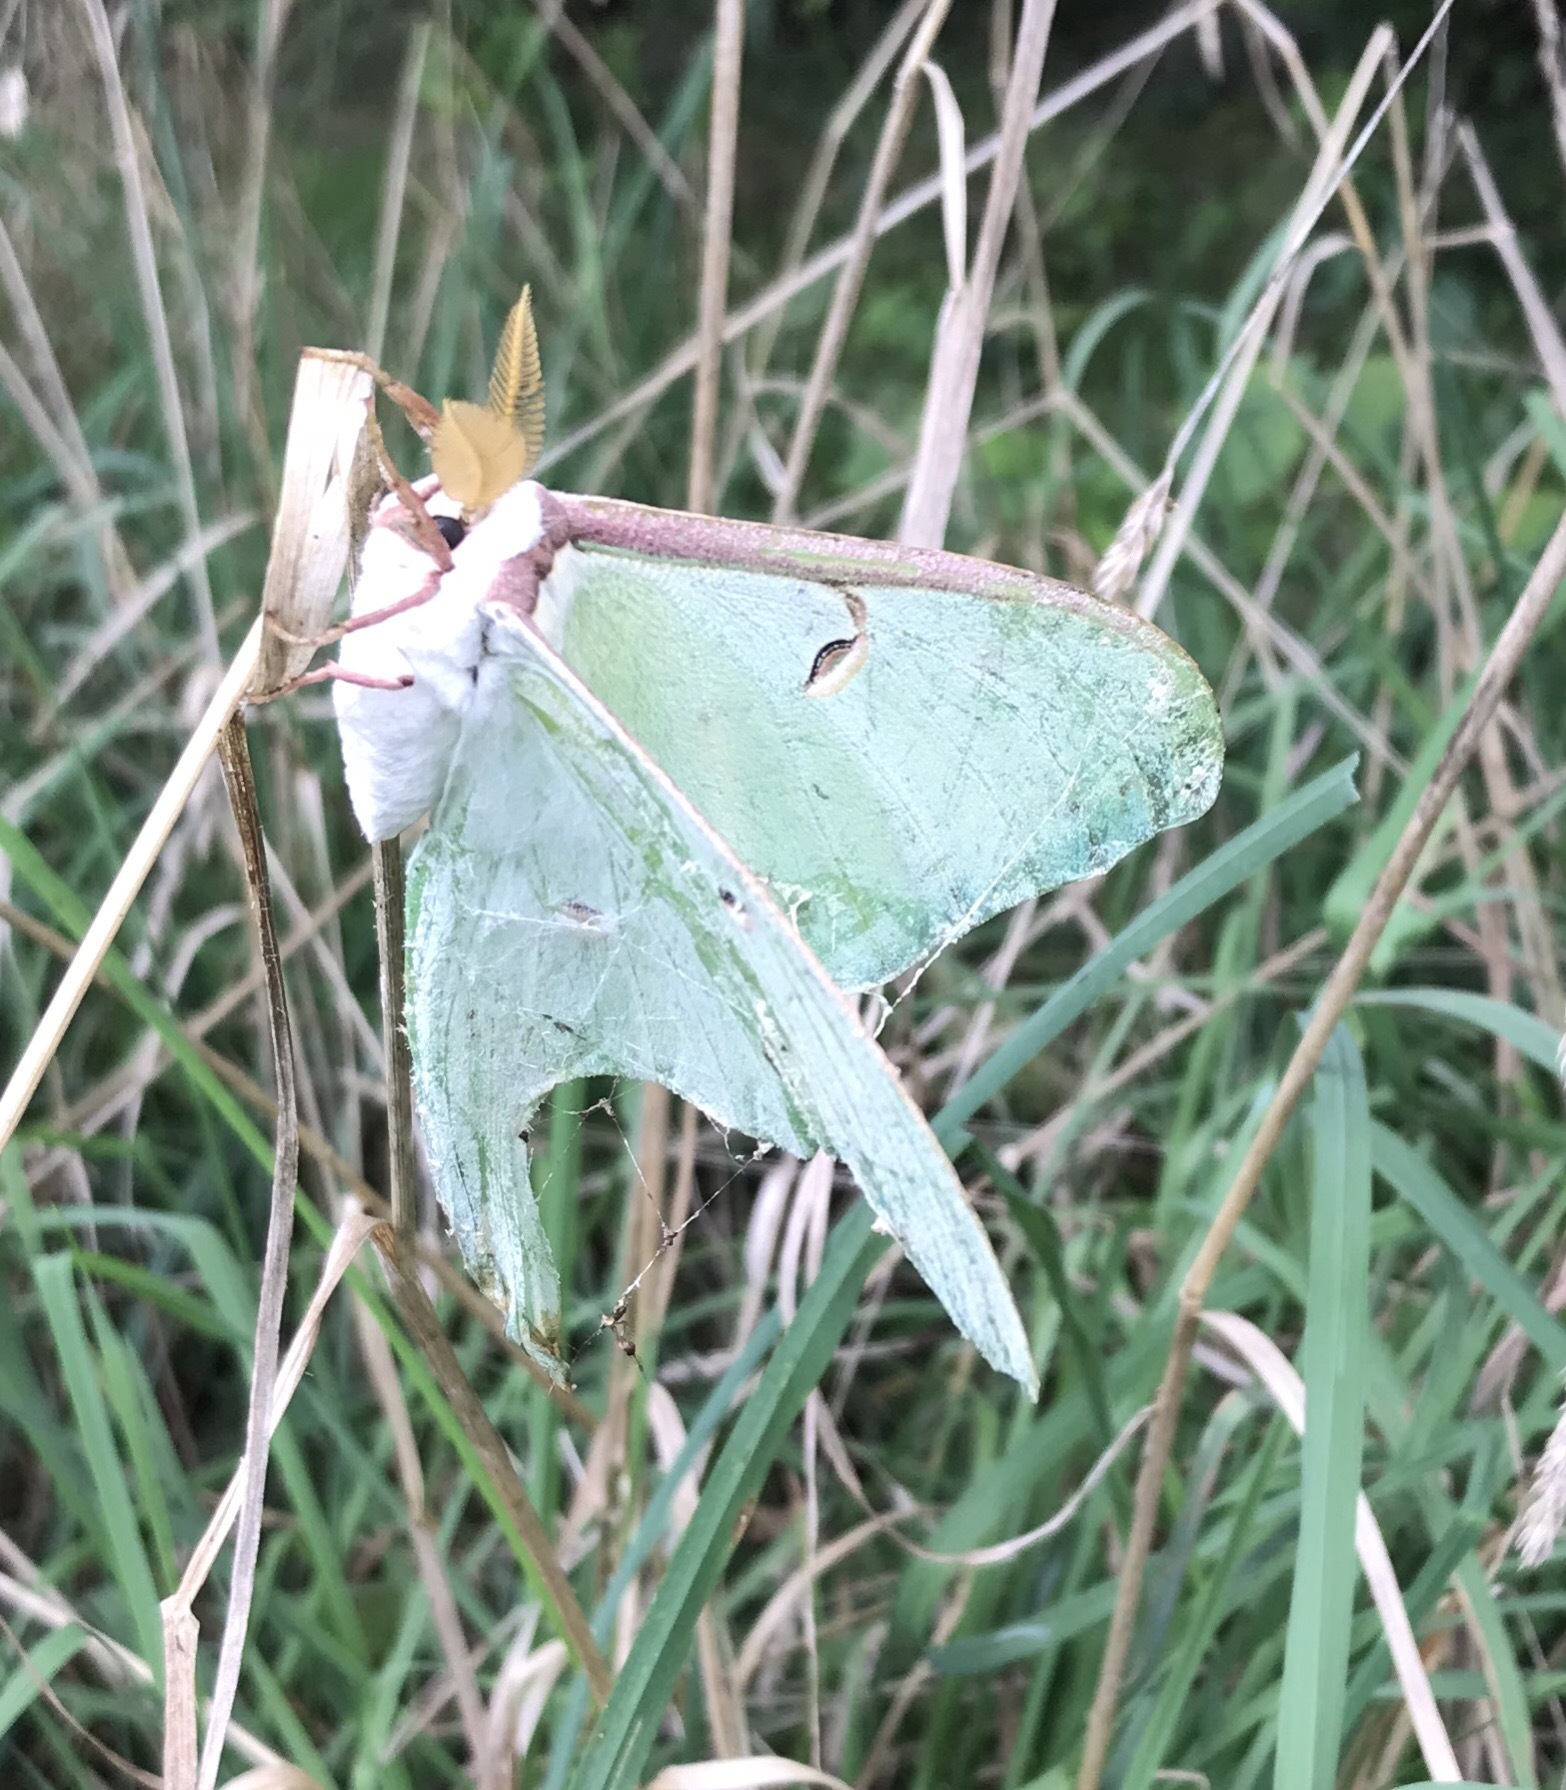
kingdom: Animalia
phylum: Arthropoda
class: Insecta
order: Lepidoptera
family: Saturniidae
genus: Actias
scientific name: Actias luna
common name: Luna moth
